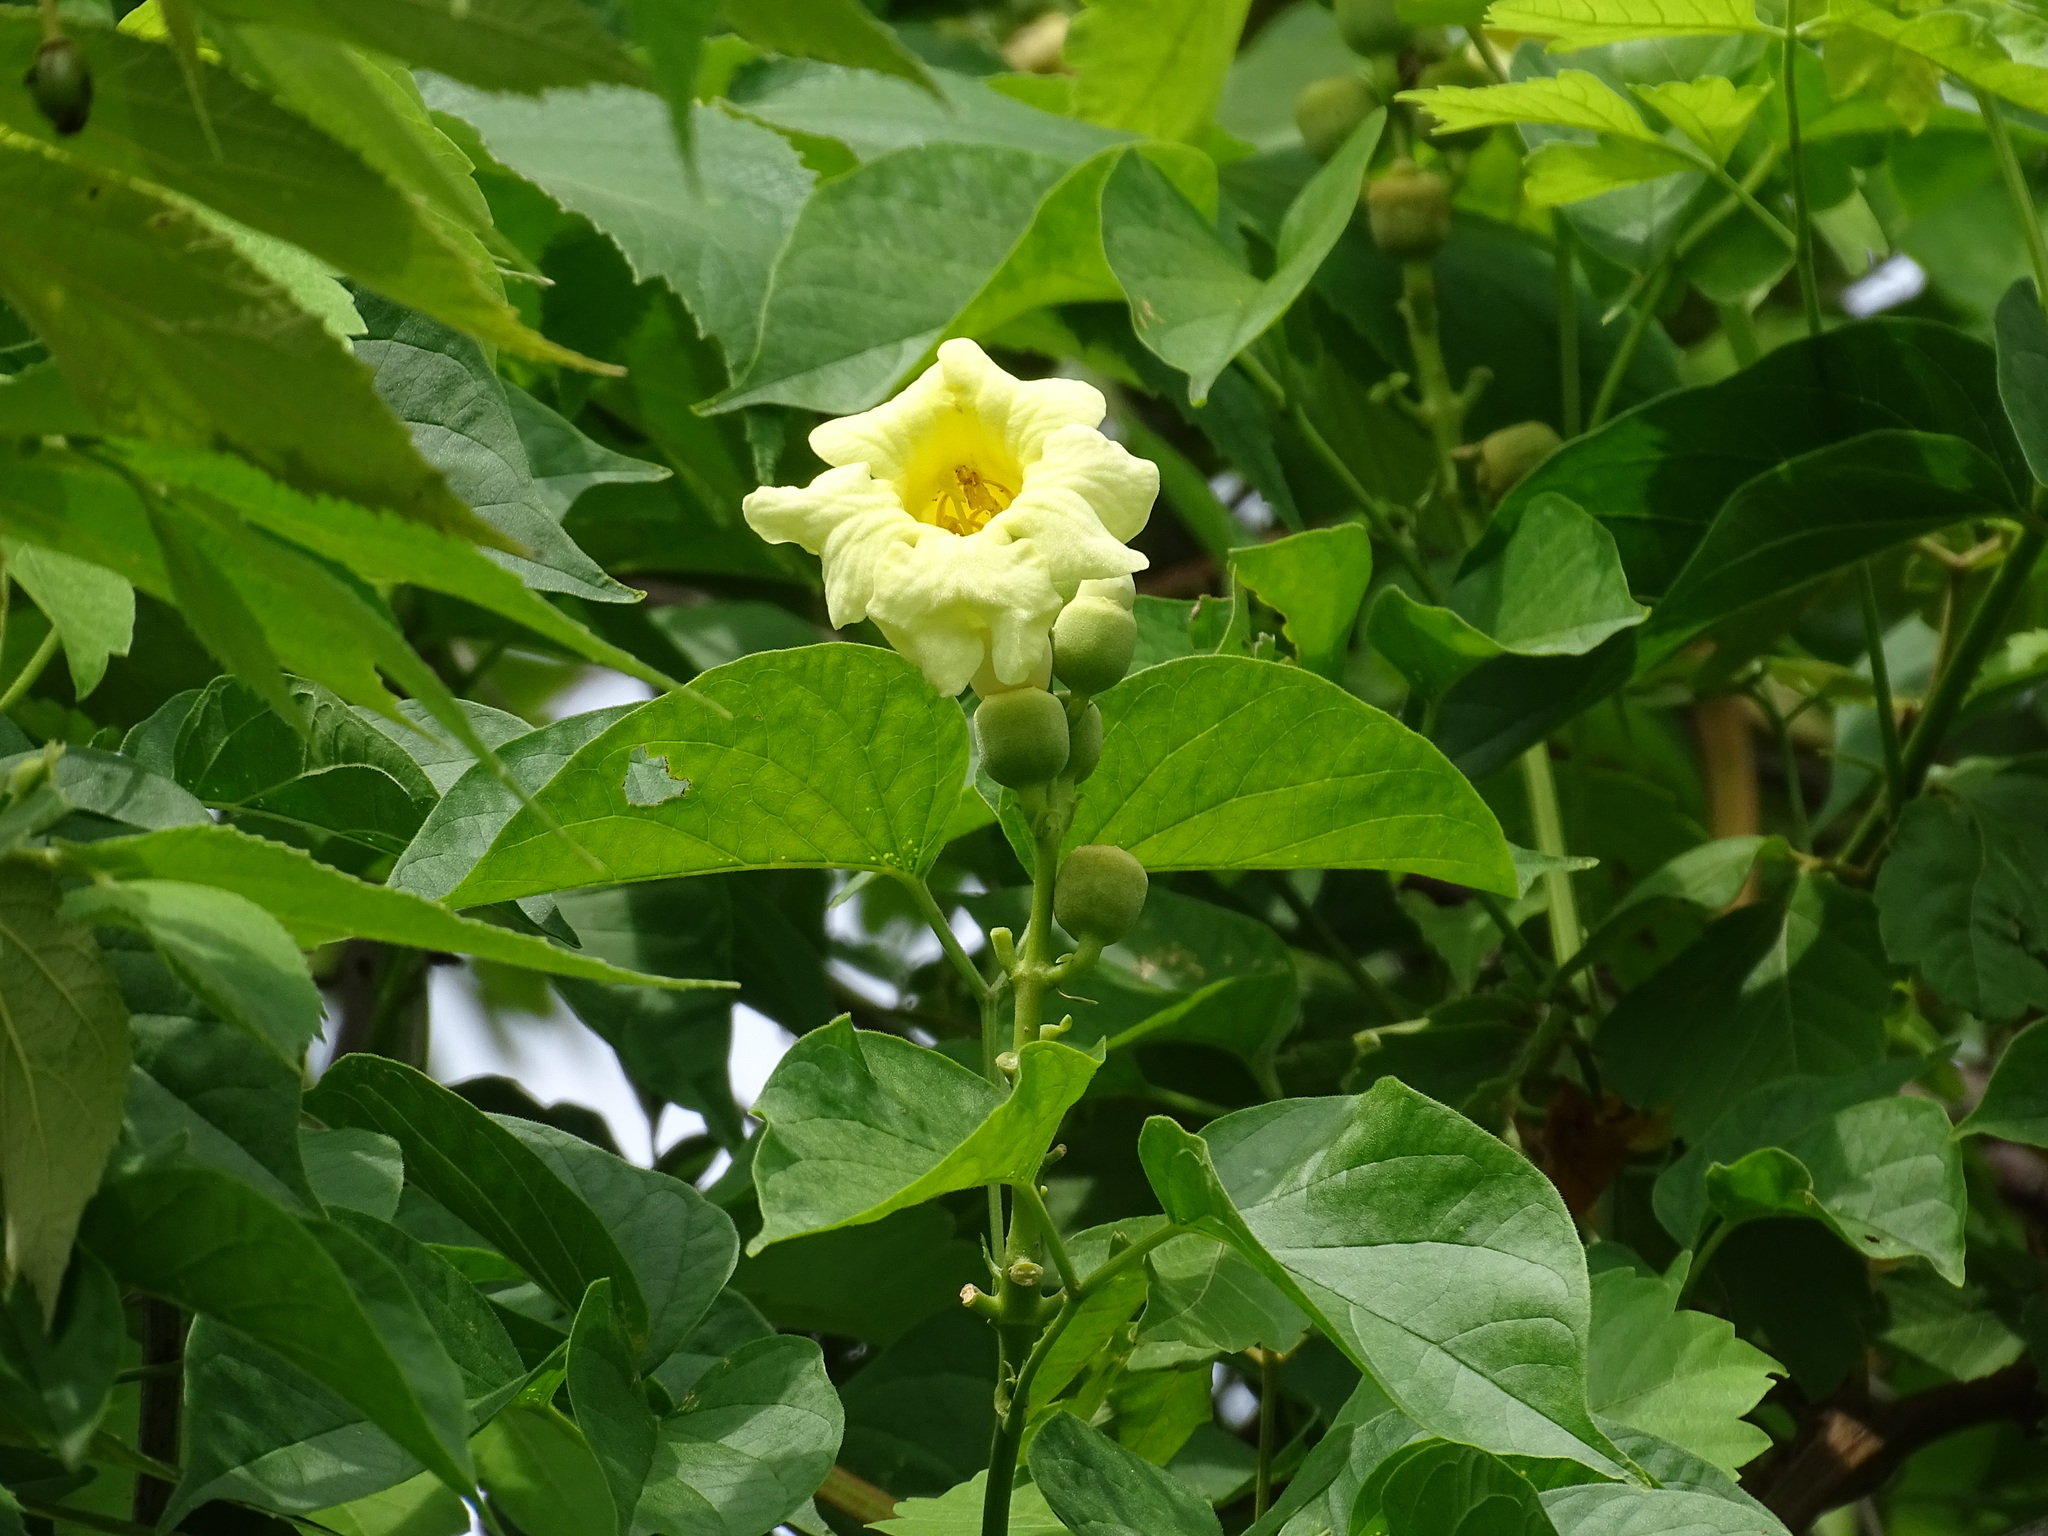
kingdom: Plantae
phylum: Tracheophyta
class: Magnoliopsida
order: Lamiales
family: Bignoniaceae
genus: Amphilophium
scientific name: Amphilophium crucigerum
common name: Monkey comb
